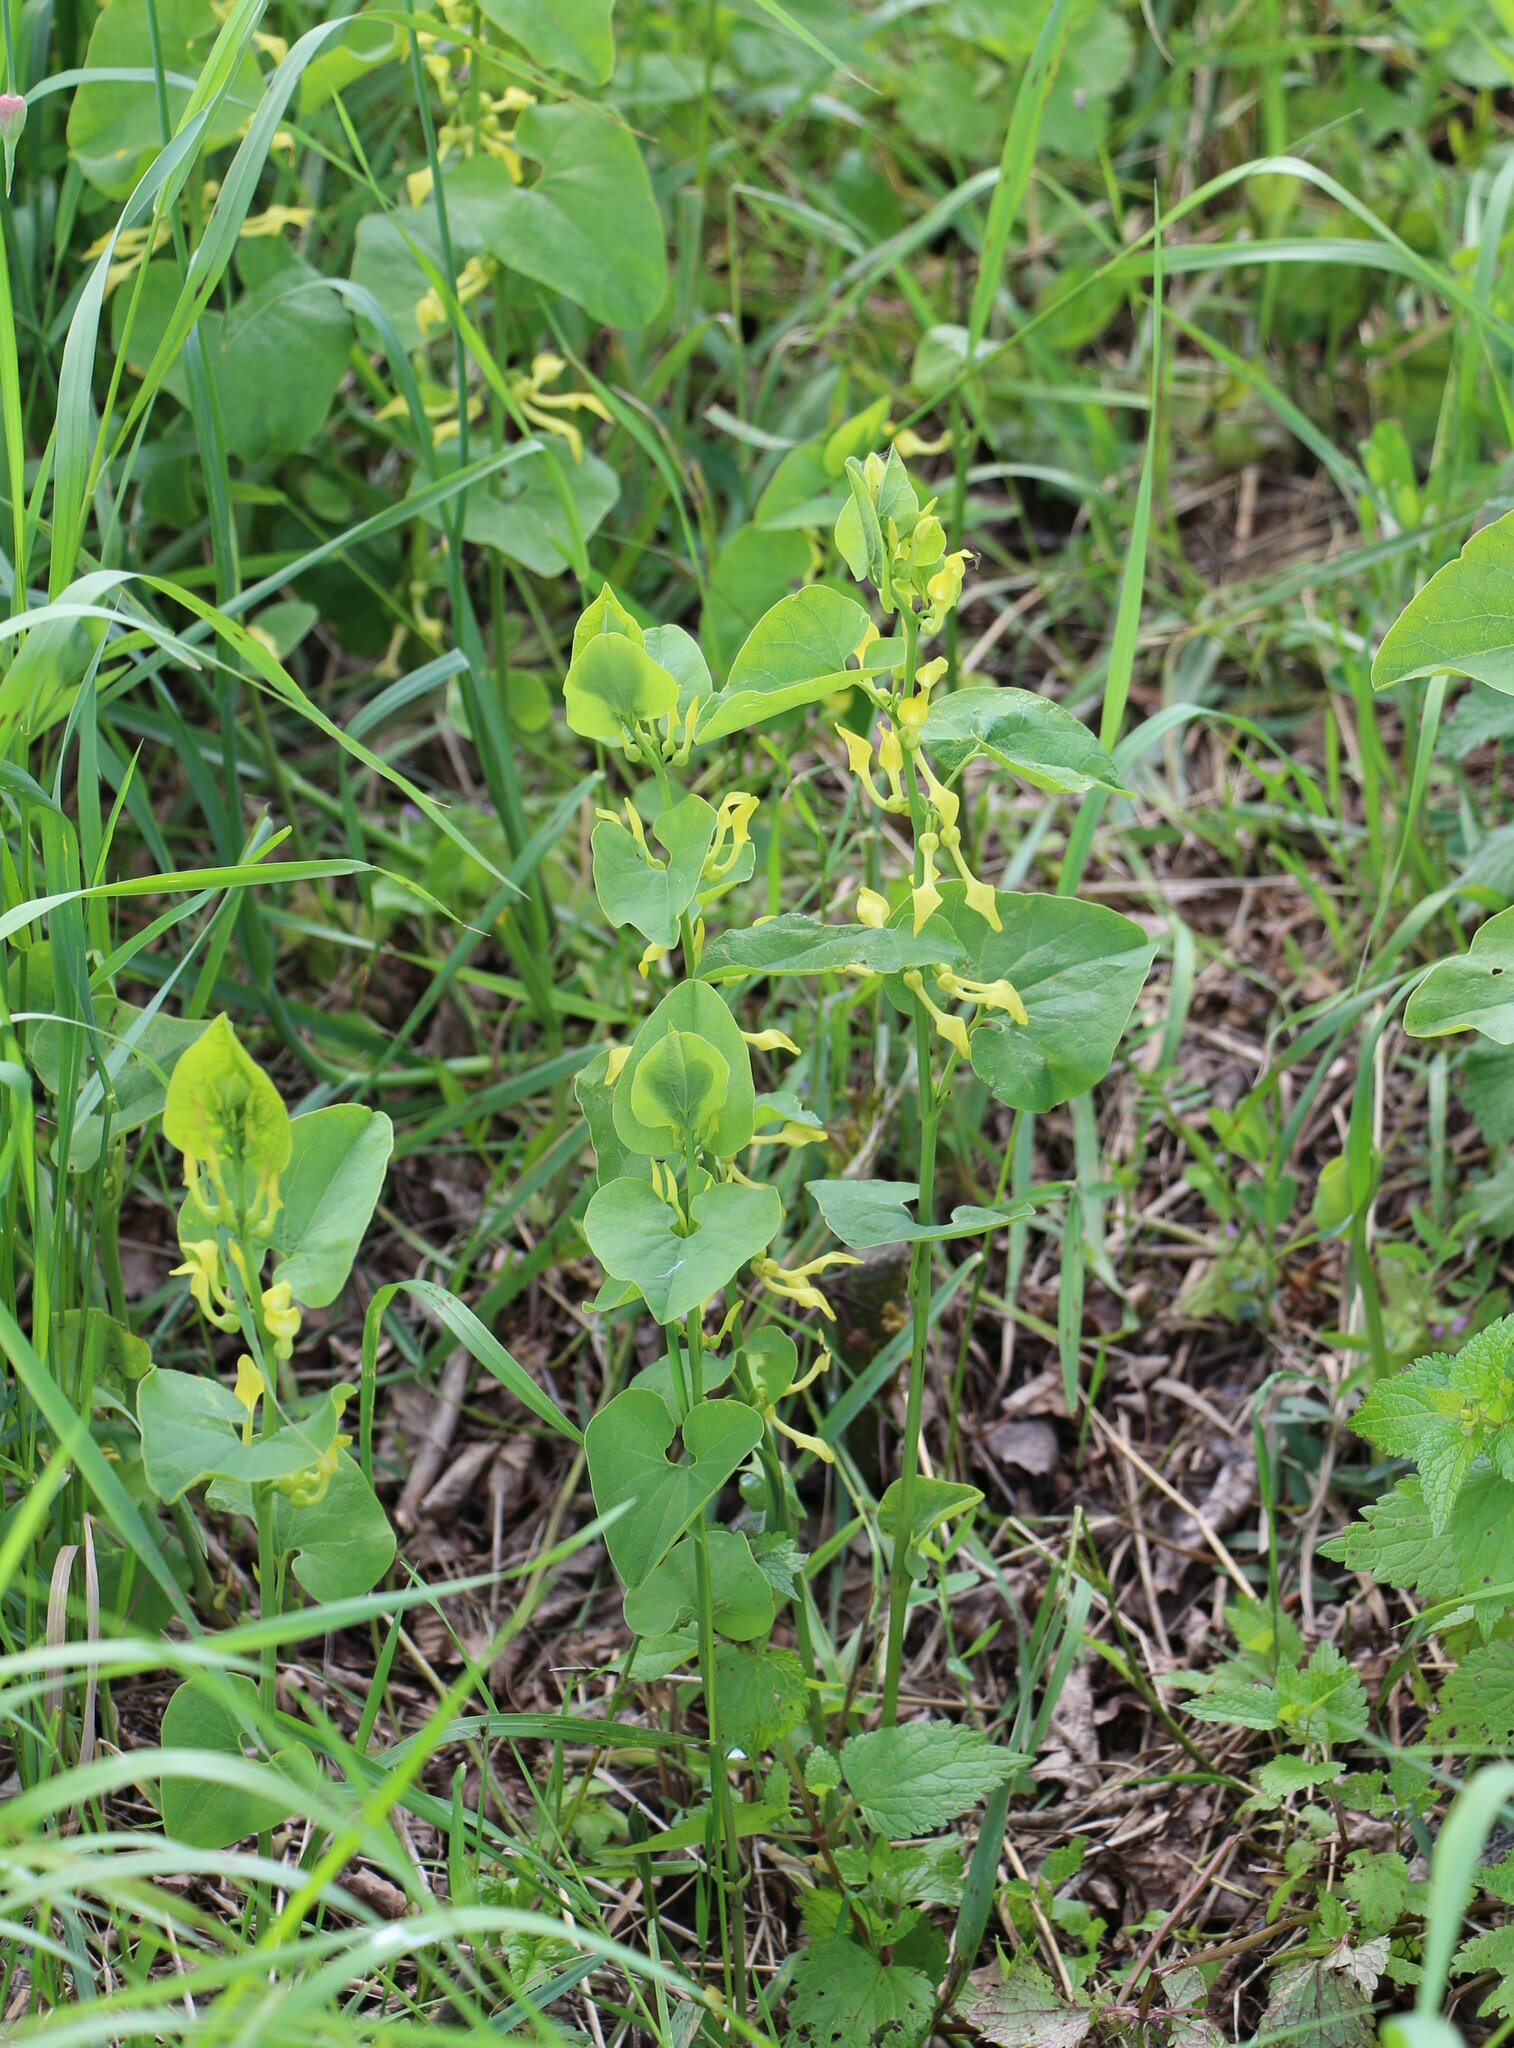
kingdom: Plantae
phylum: Tracheophyta
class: Magnoliopsida
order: Piperales
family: Aristolochiaceae
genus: Aristolochia
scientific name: Aristolochia clematitis
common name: Birthwort
